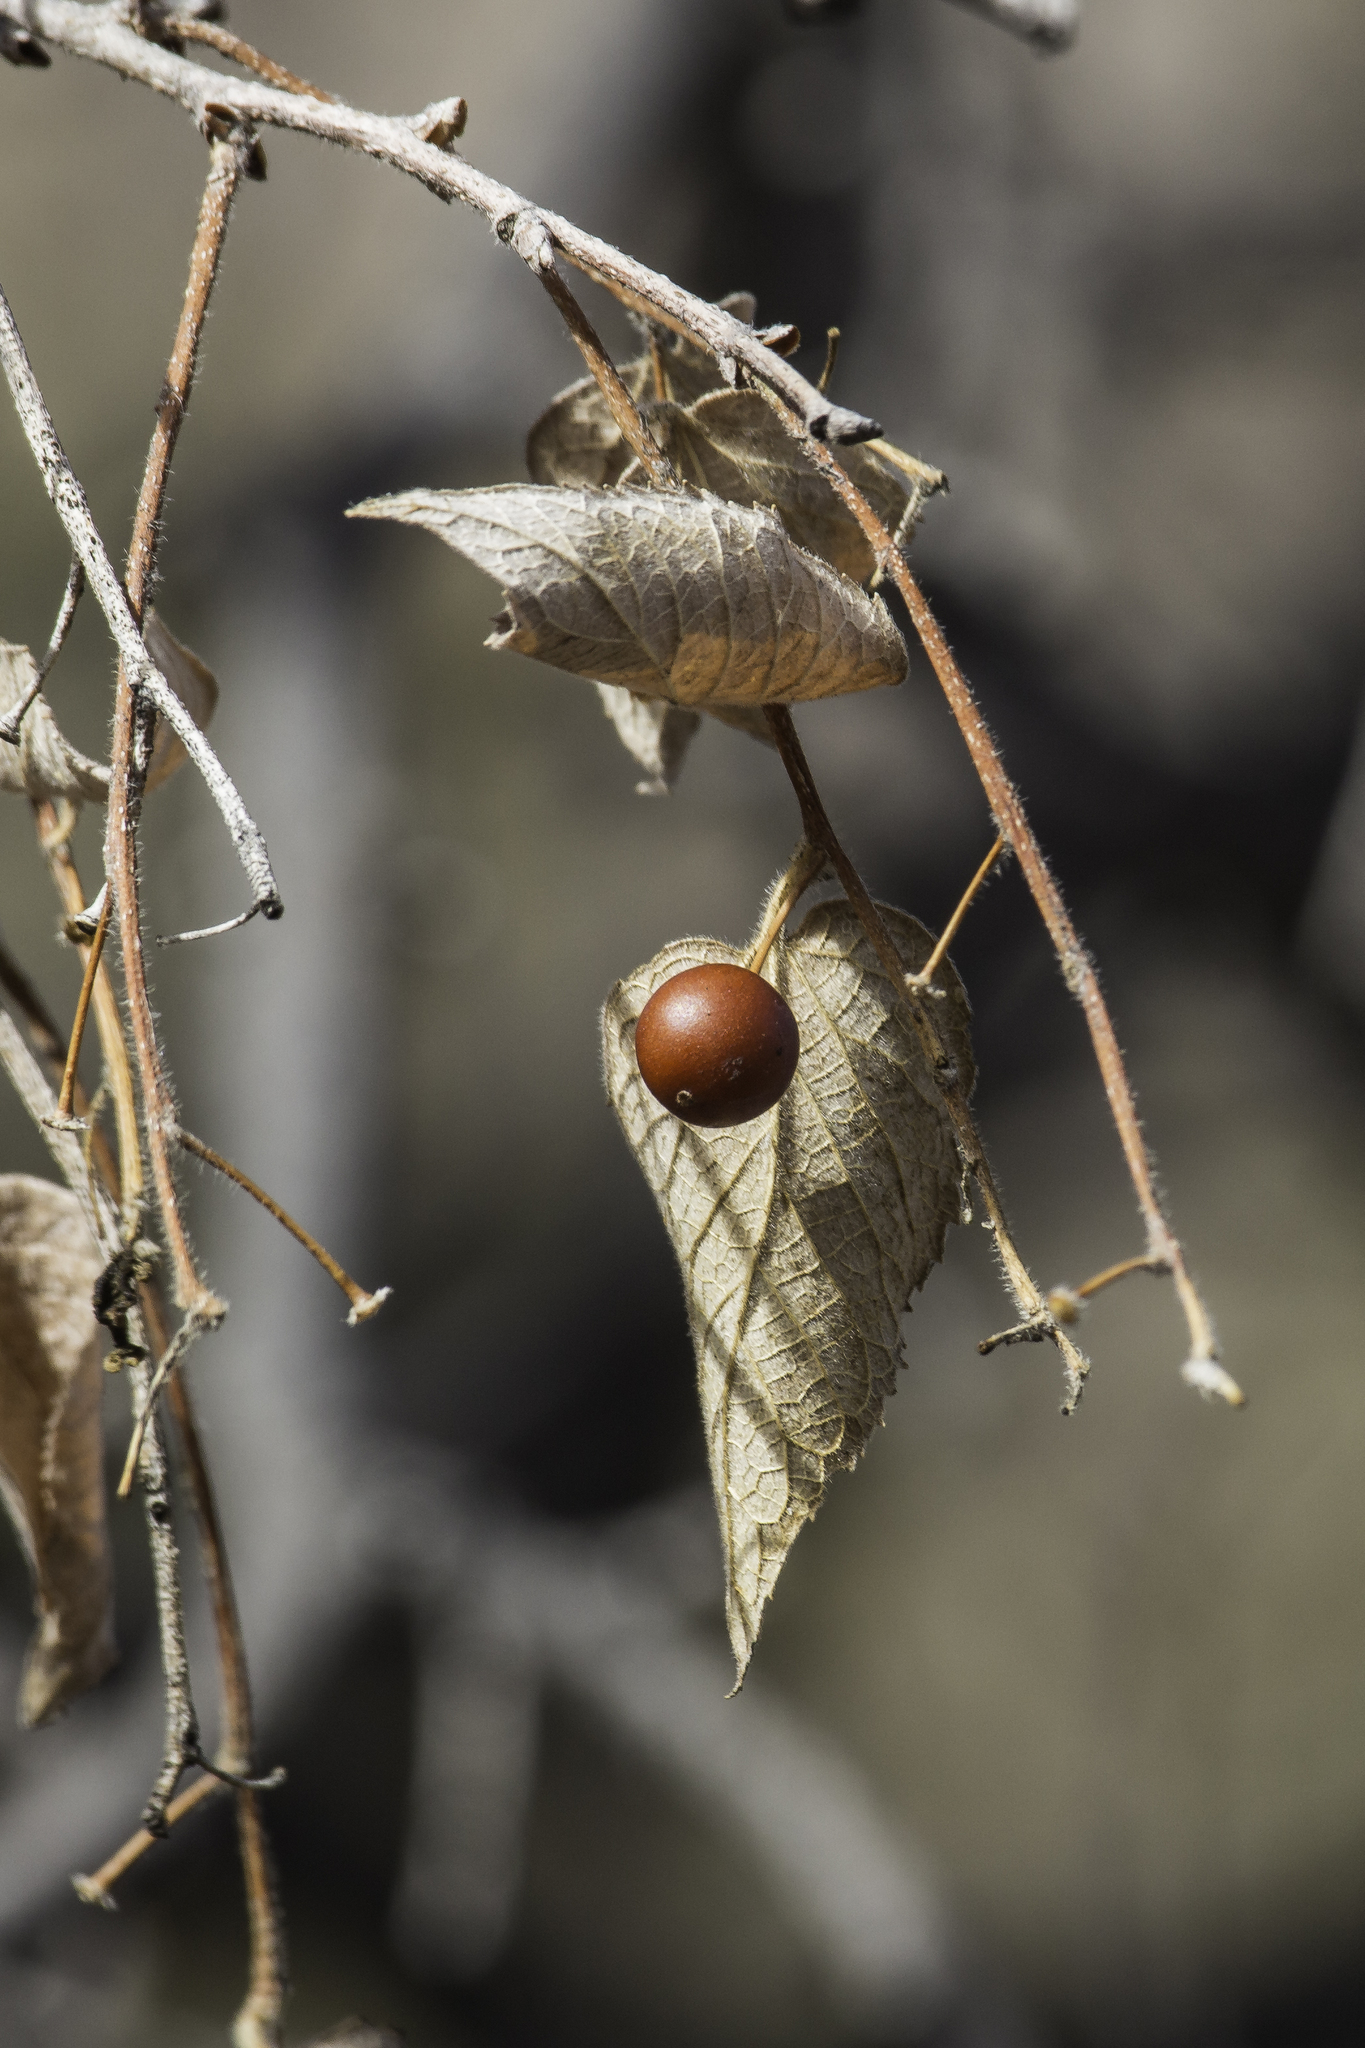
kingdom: Plantae
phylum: Tracheophyta
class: Magnoliopsida
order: Rosales
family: Cannabaceae
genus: Celtis
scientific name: Celtis reticulata
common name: Netleaf hackberry
